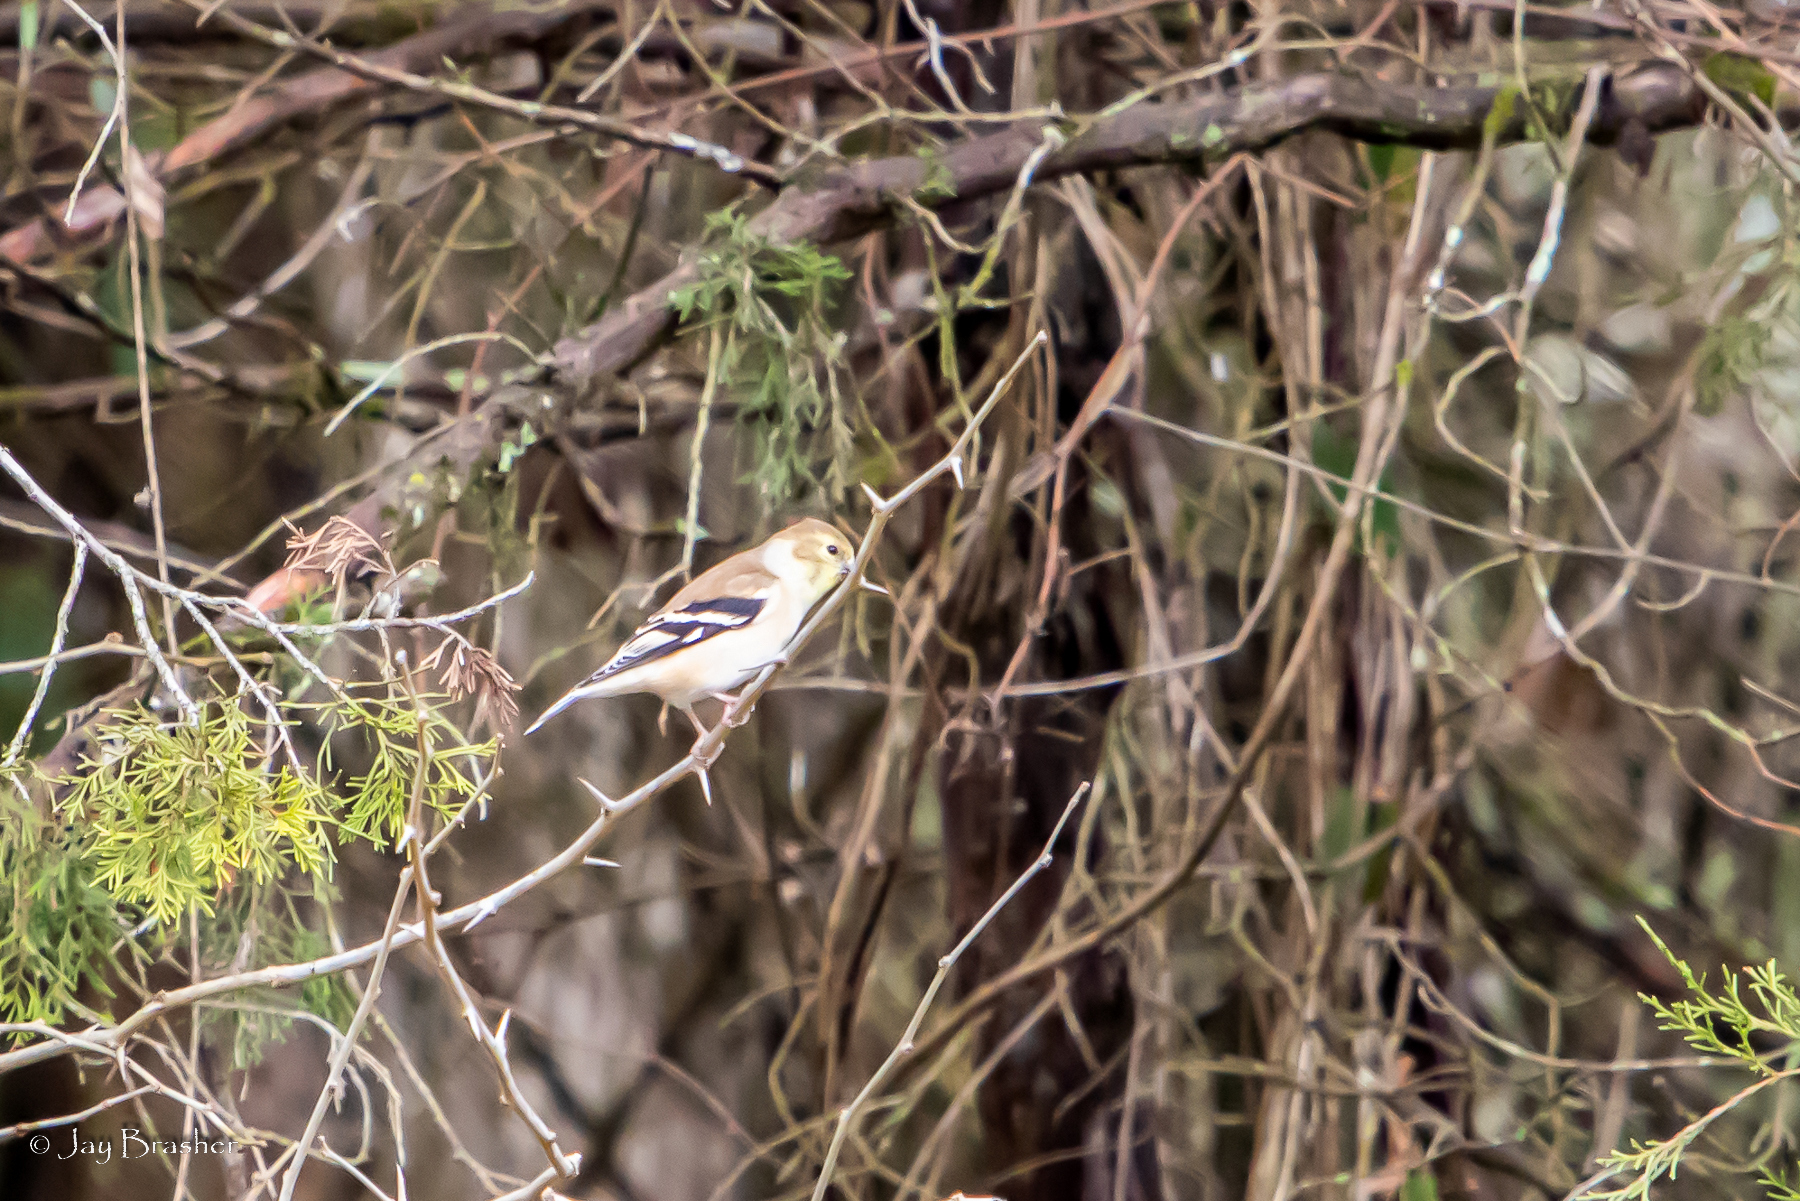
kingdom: Animalia
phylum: Chordata
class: Aves
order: Passeriformes
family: Fringillidae
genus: Spinus
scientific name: Spinus tristis
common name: American goldfinch
